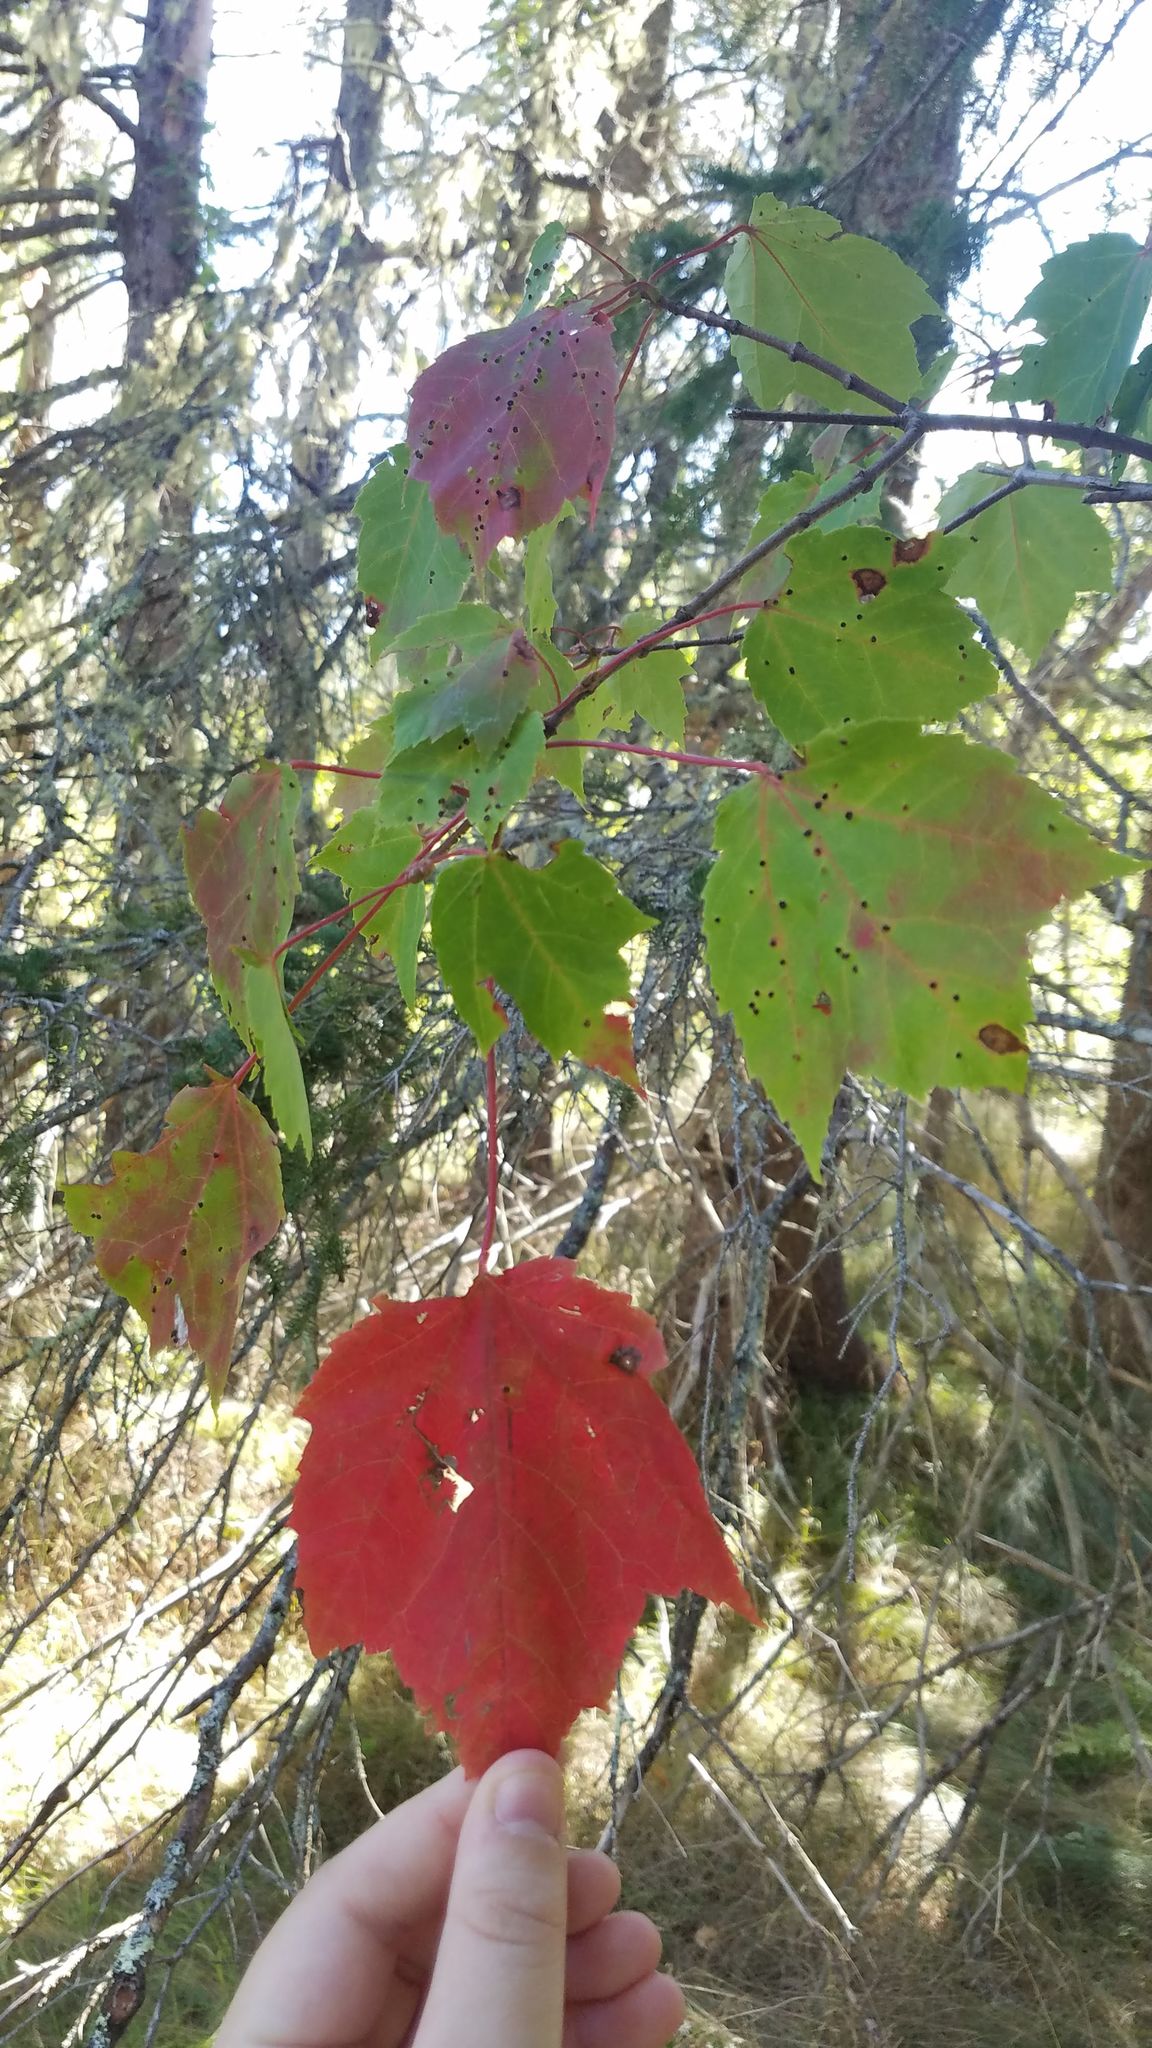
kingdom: Plantae
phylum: Tracheophyta
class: Magnoliopsida
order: Sapindales
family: Sapindaceae
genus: Acer
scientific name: Acer rubrum
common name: Red maple
